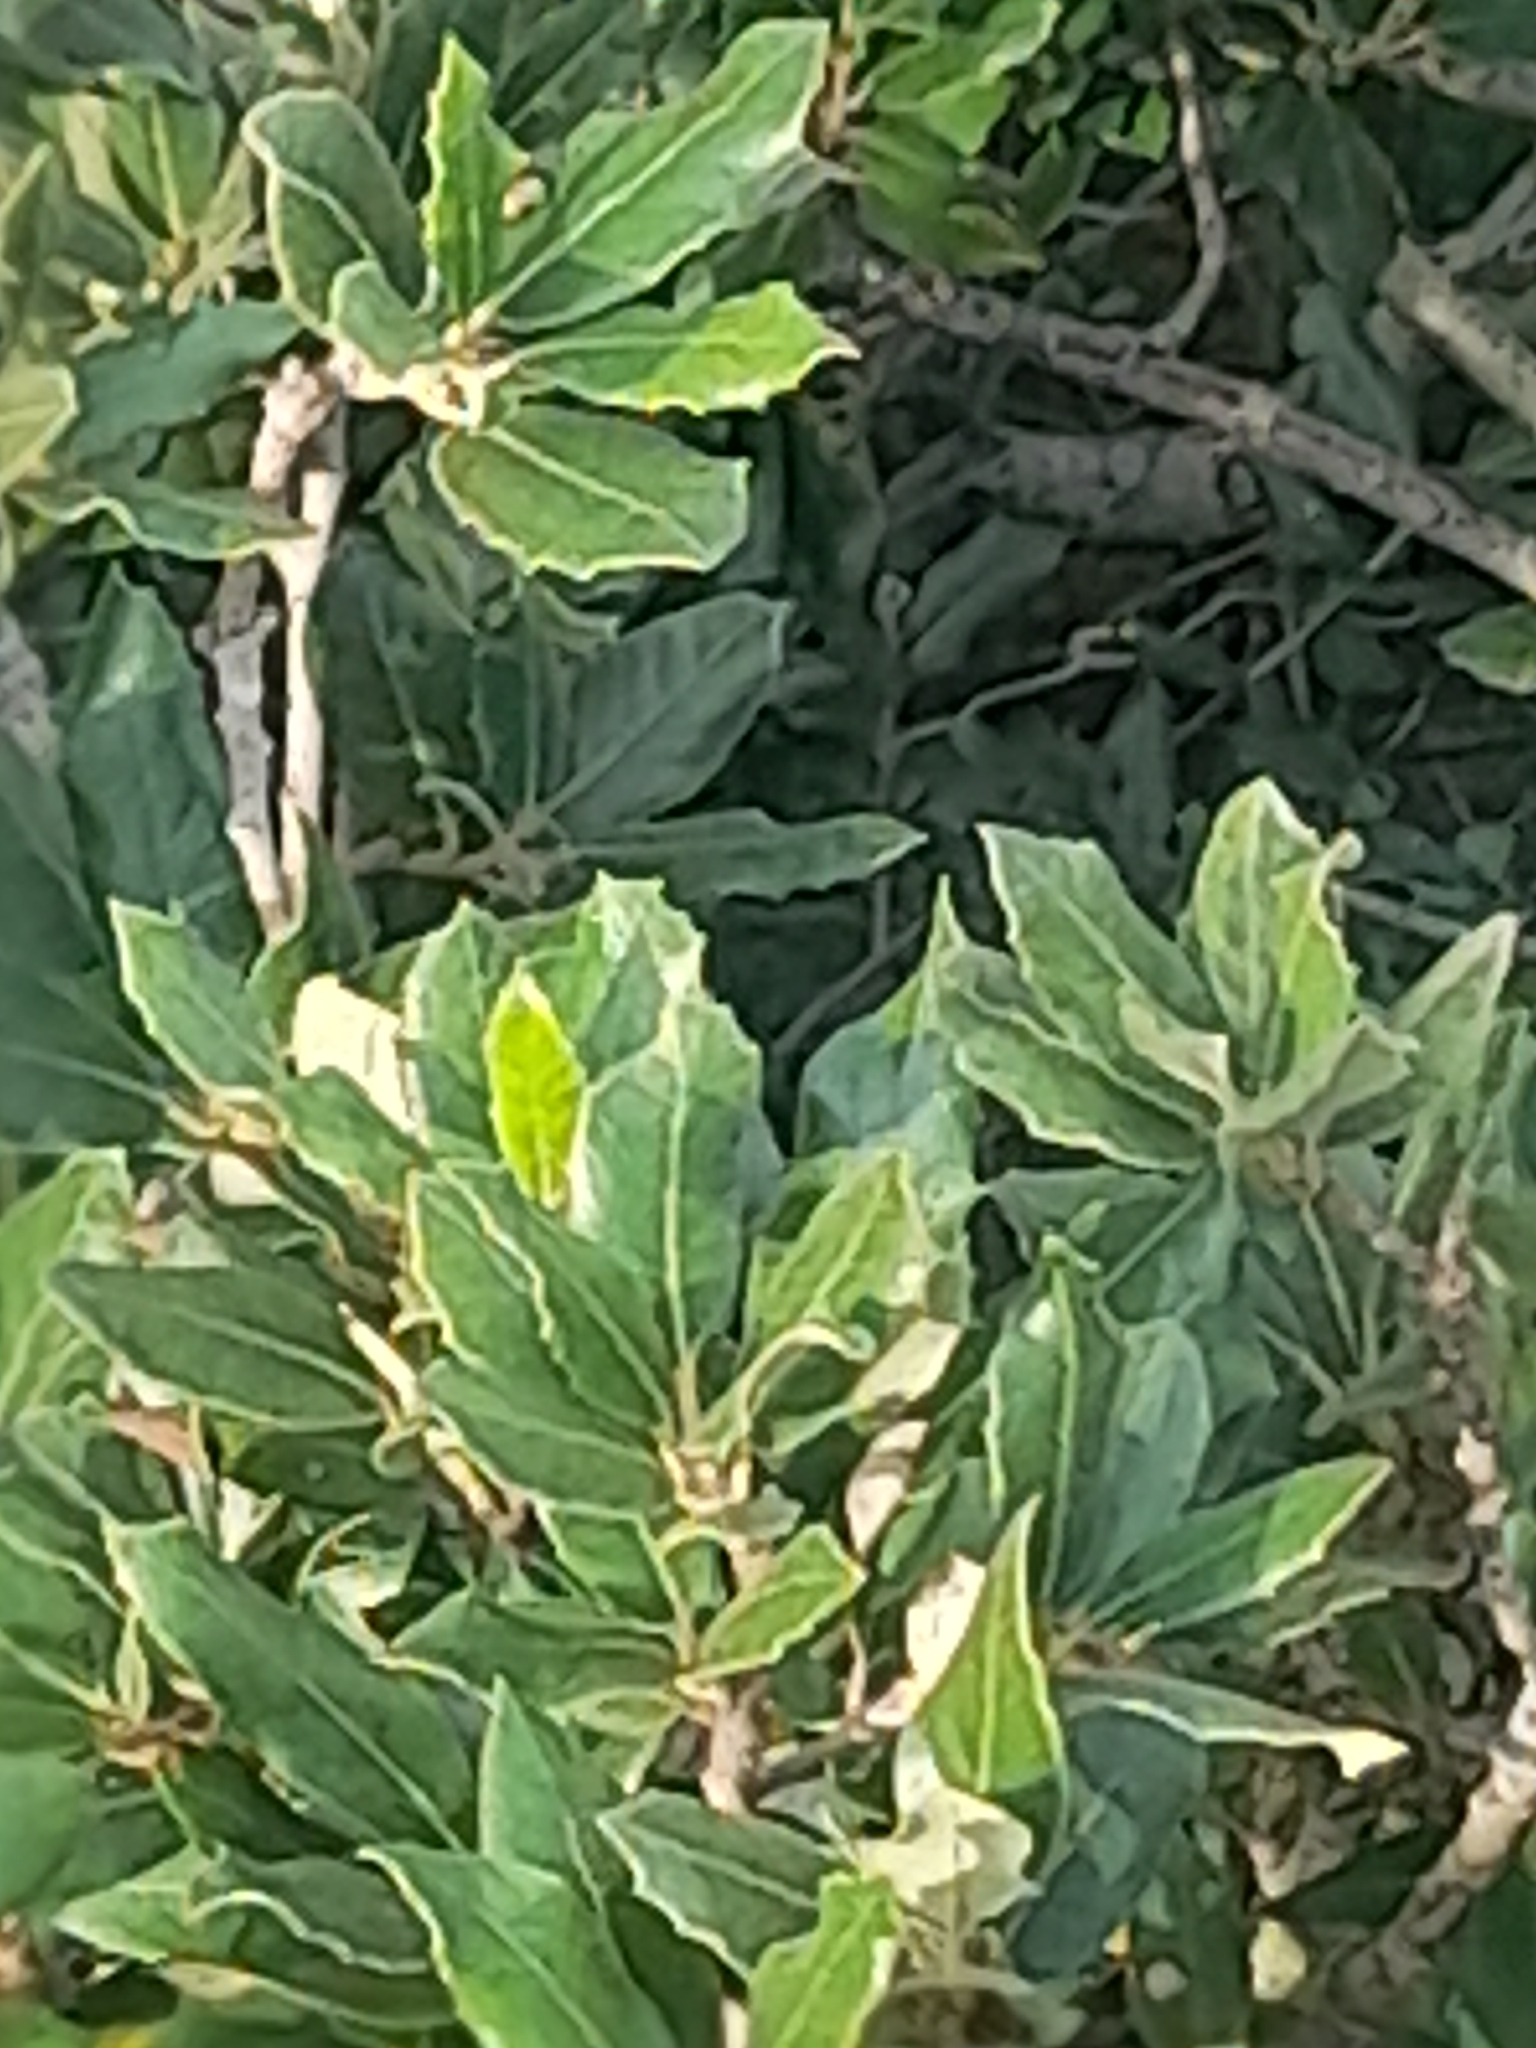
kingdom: Plantae
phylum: Tracheophyta
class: Magnoliopsida
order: Fagales
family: Fagaceae
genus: Quercus
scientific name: Quercus ilex
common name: Evergreen oak
